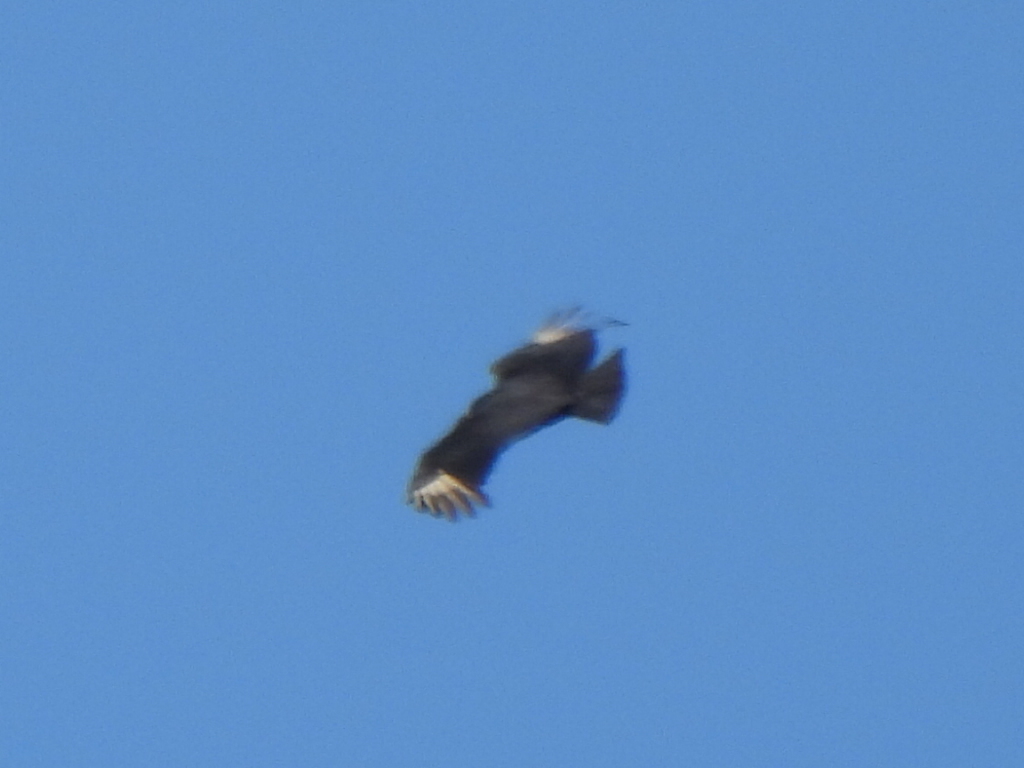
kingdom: Animalia
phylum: Chordata
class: Aves
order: Accipitriformes
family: Cathartidae
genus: Coragyps
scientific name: Coragyps atratus
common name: Black vulture
